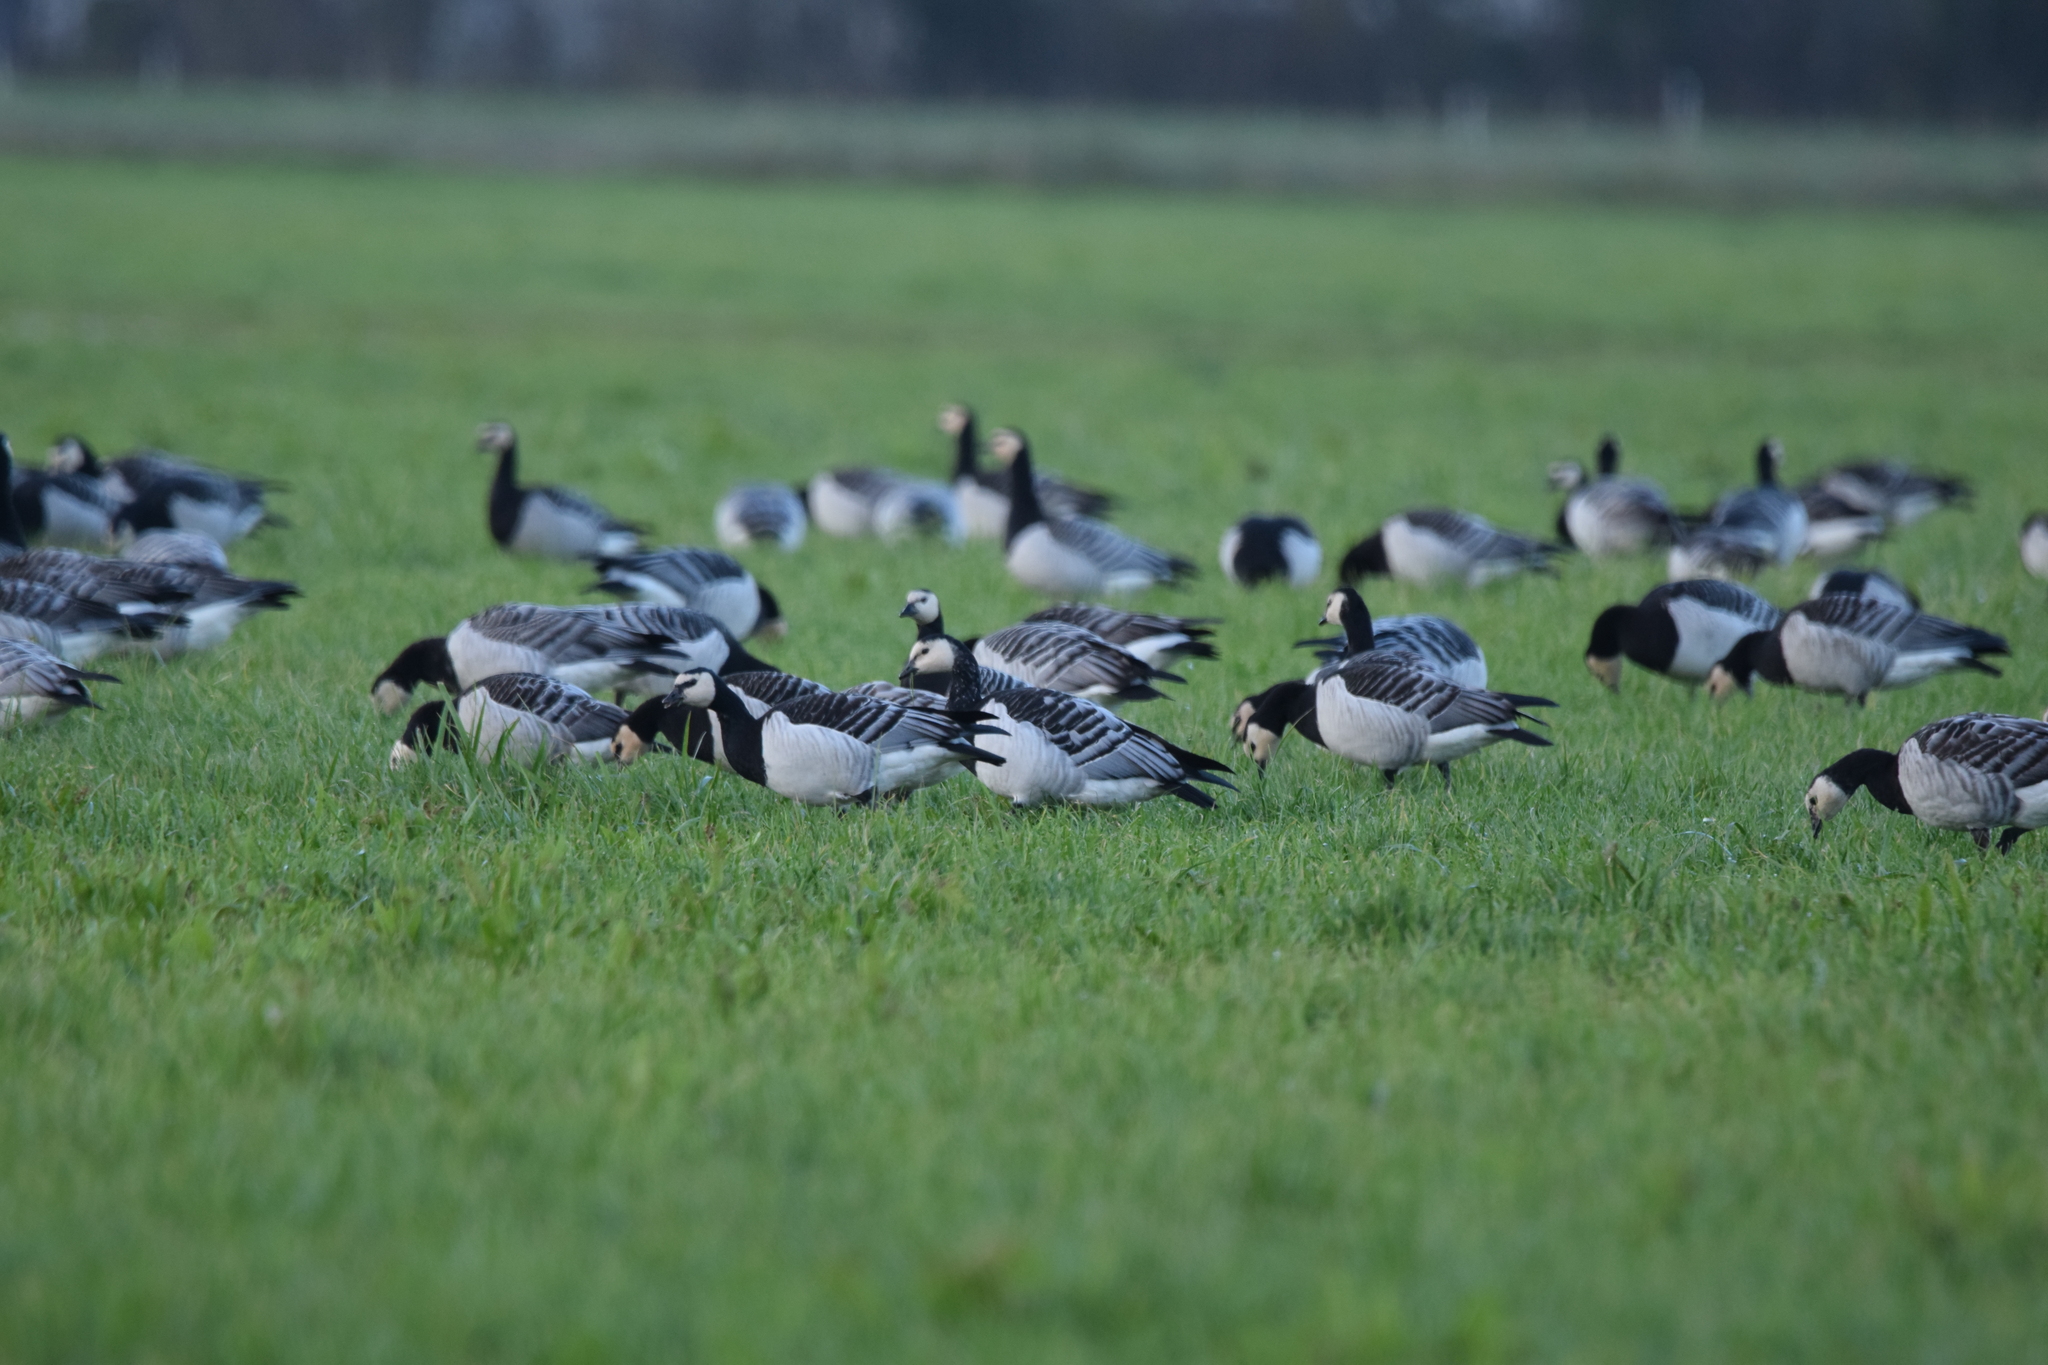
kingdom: Animalia
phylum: Chordata
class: Aves
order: Anseriformes
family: Anatidae
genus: Branta
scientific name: Branta leucopsis
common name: Barnacle goose
